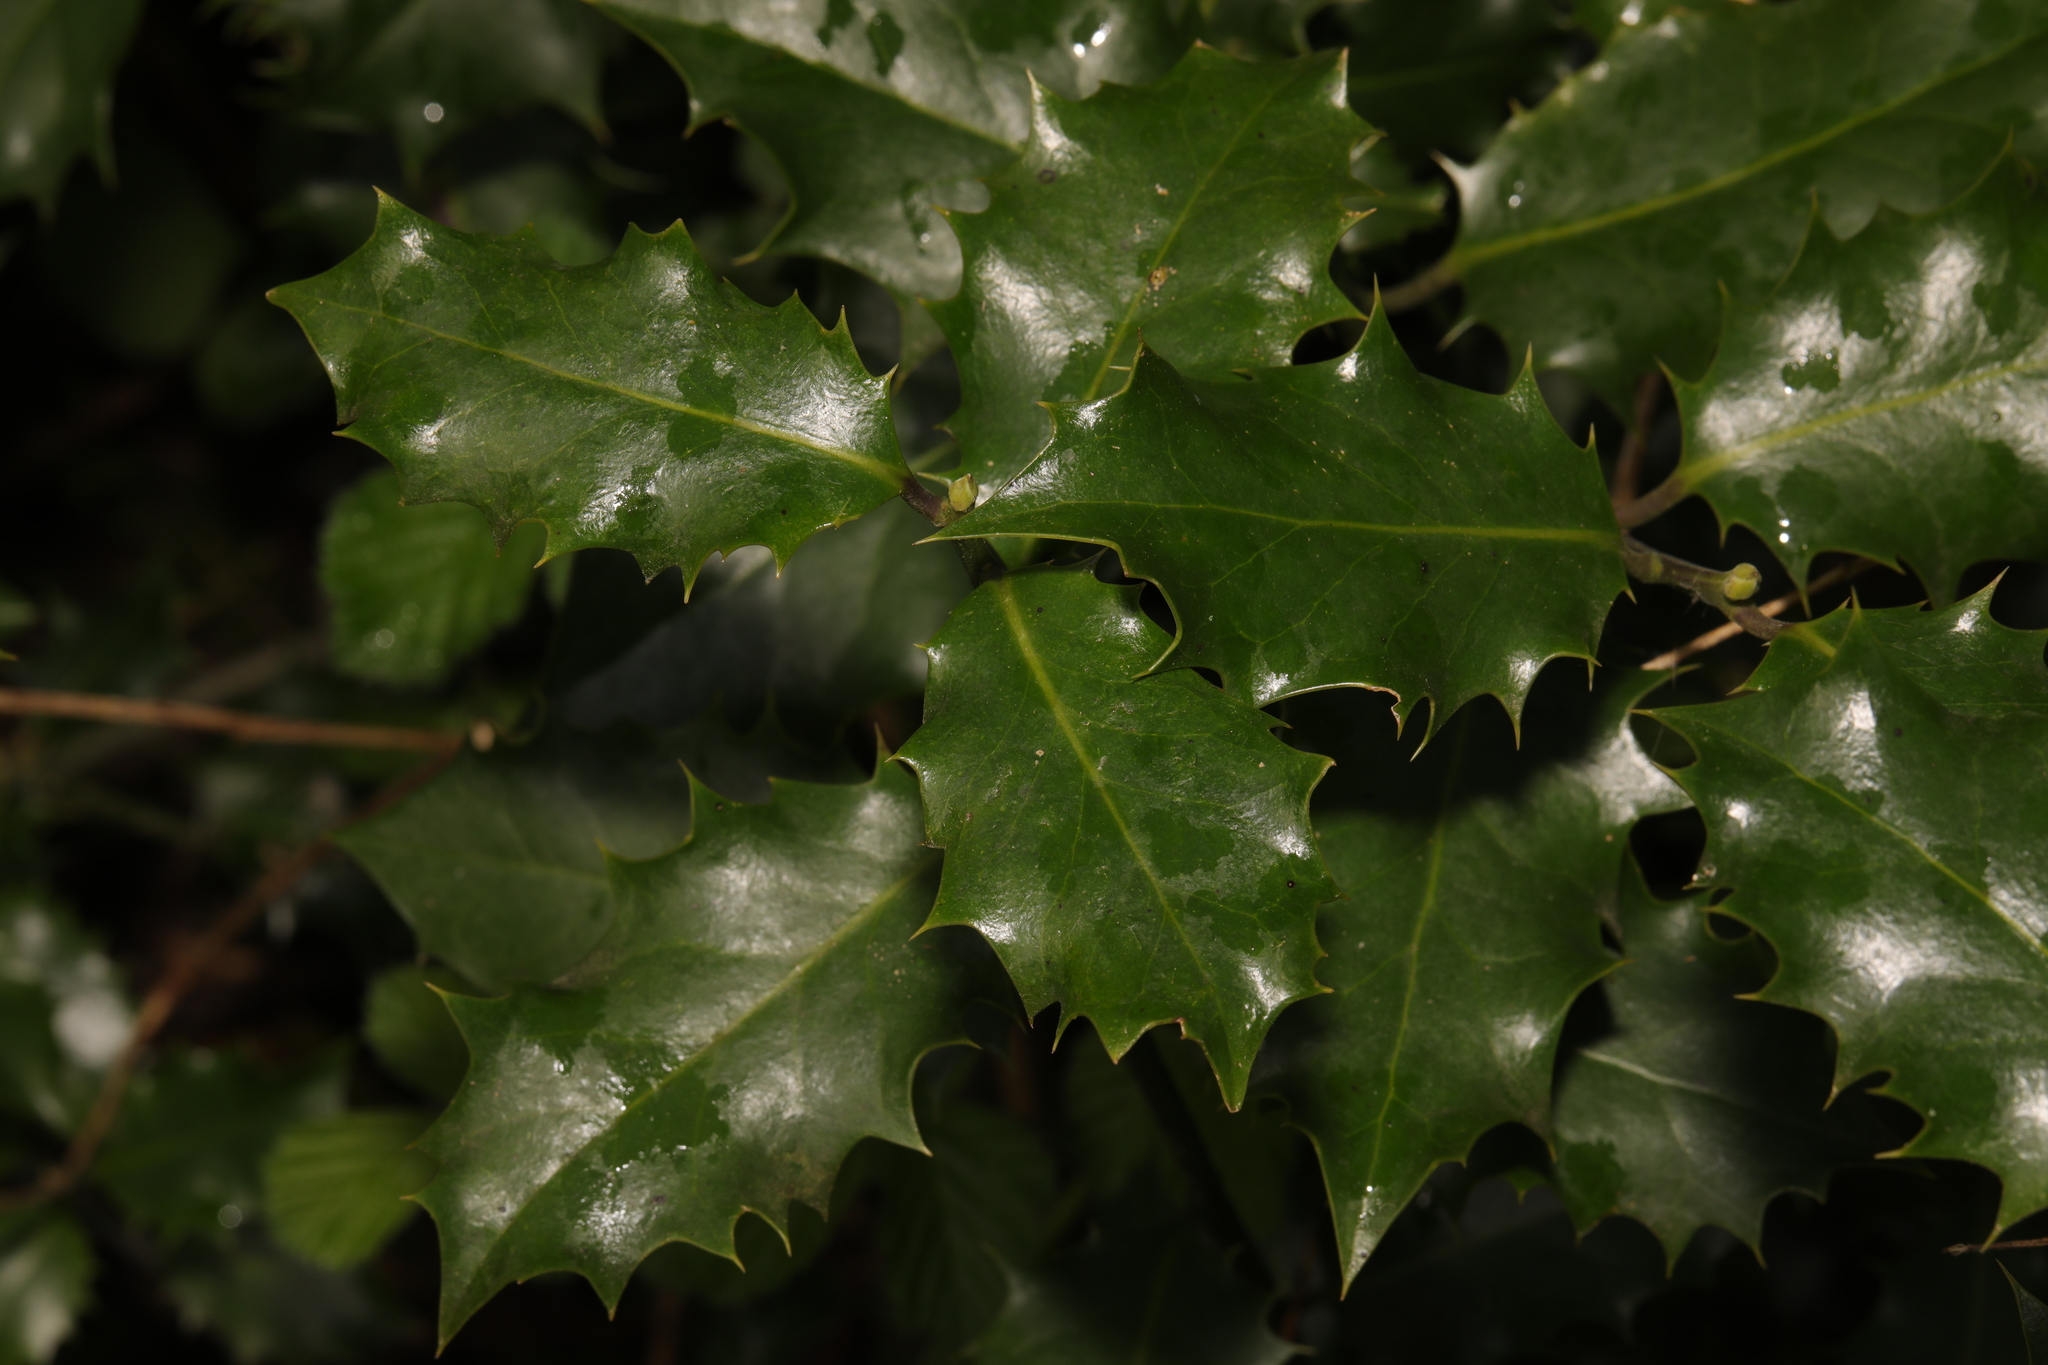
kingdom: Plantae
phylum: Tracheophyta
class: Magnoliopsida
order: Aquifoliales
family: Aquifoliaceae
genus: Ilex
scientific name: Ilex aquifolium
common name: English holly
